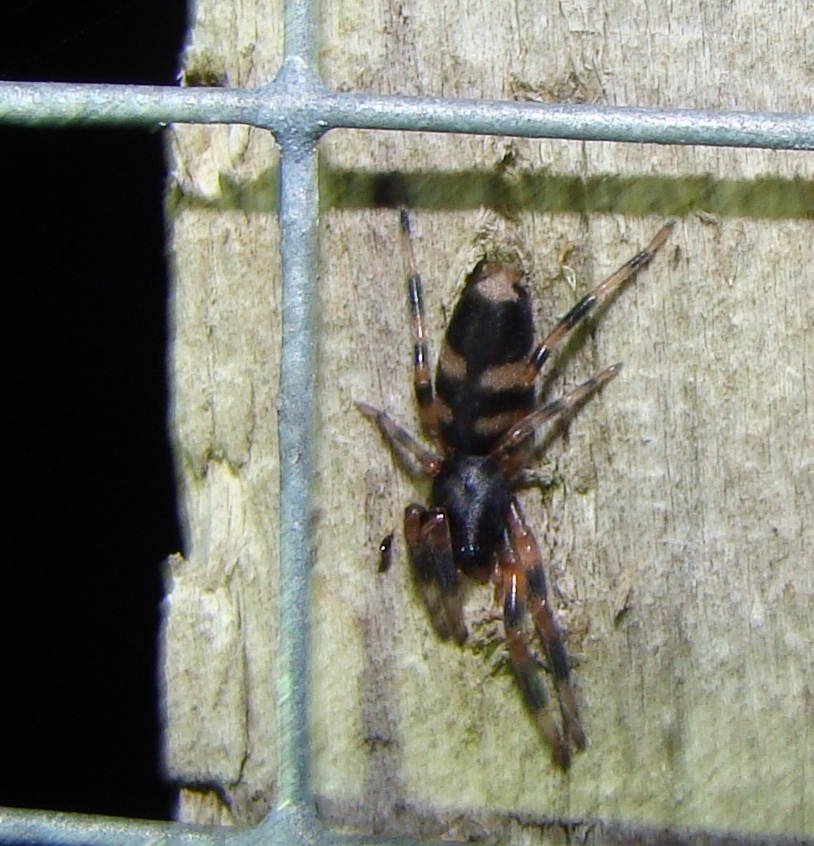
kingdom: Animalia
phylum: Arthropoda
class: Arachnida
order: Araneae
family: Lamponidae
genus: Lampona
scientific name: Lampona murina
